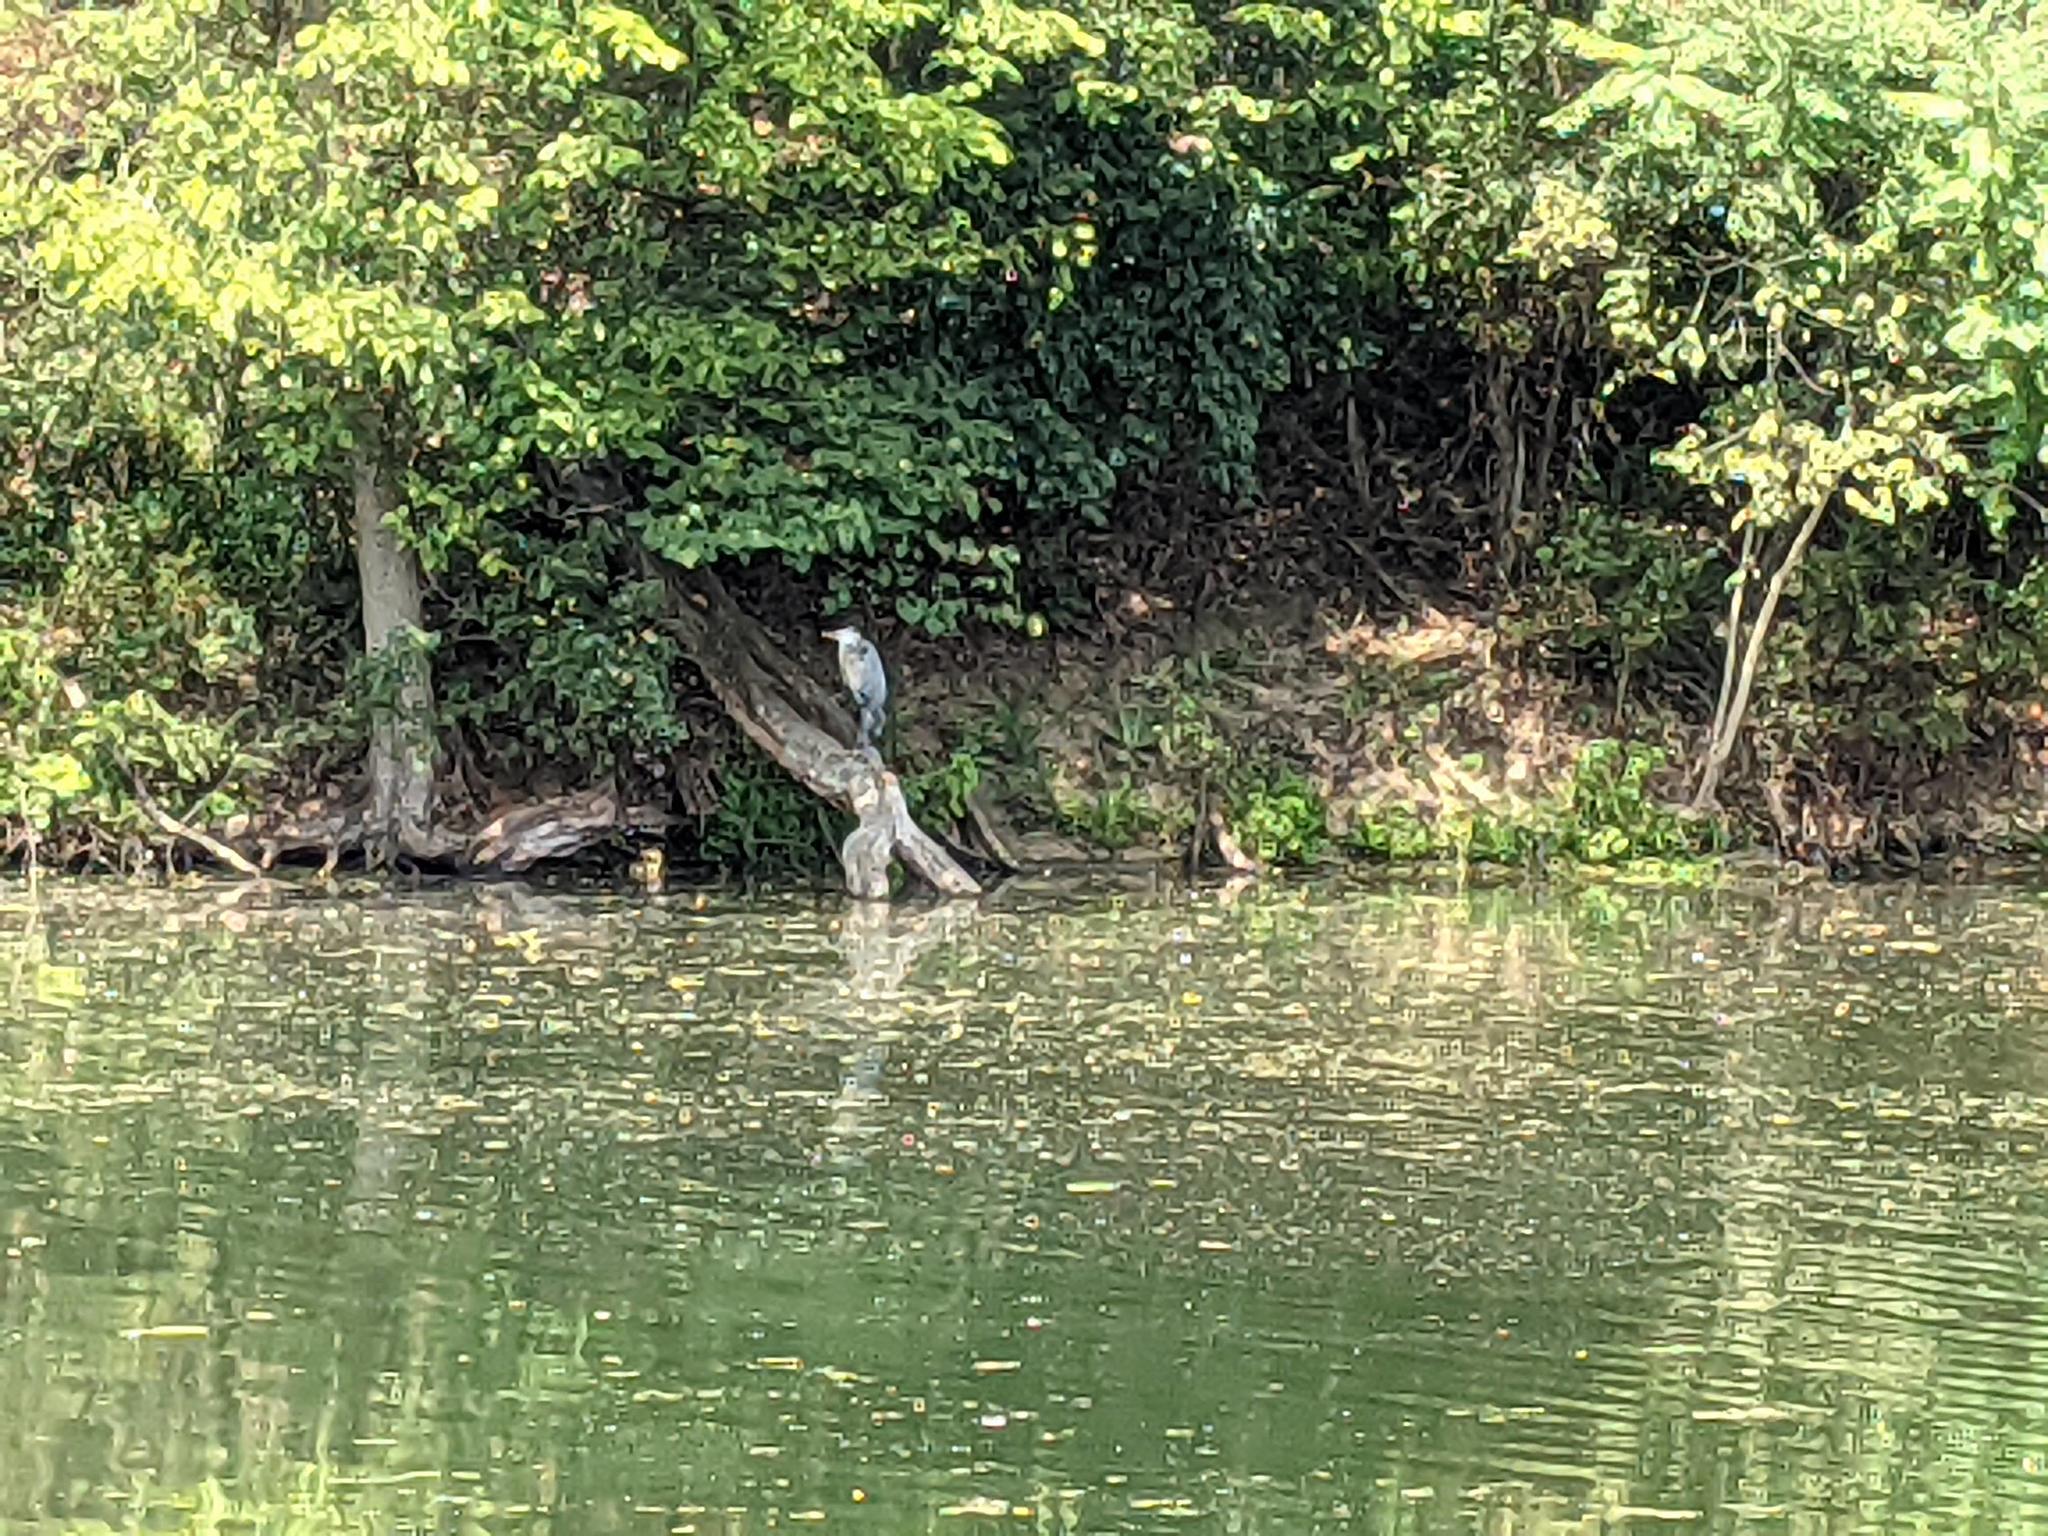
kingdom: Animalia
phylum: Chordata
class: Aves
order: Pelecaniformes
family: Ardeidae
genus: Ardea
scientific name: Ardea herodias
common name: Great blue heron
